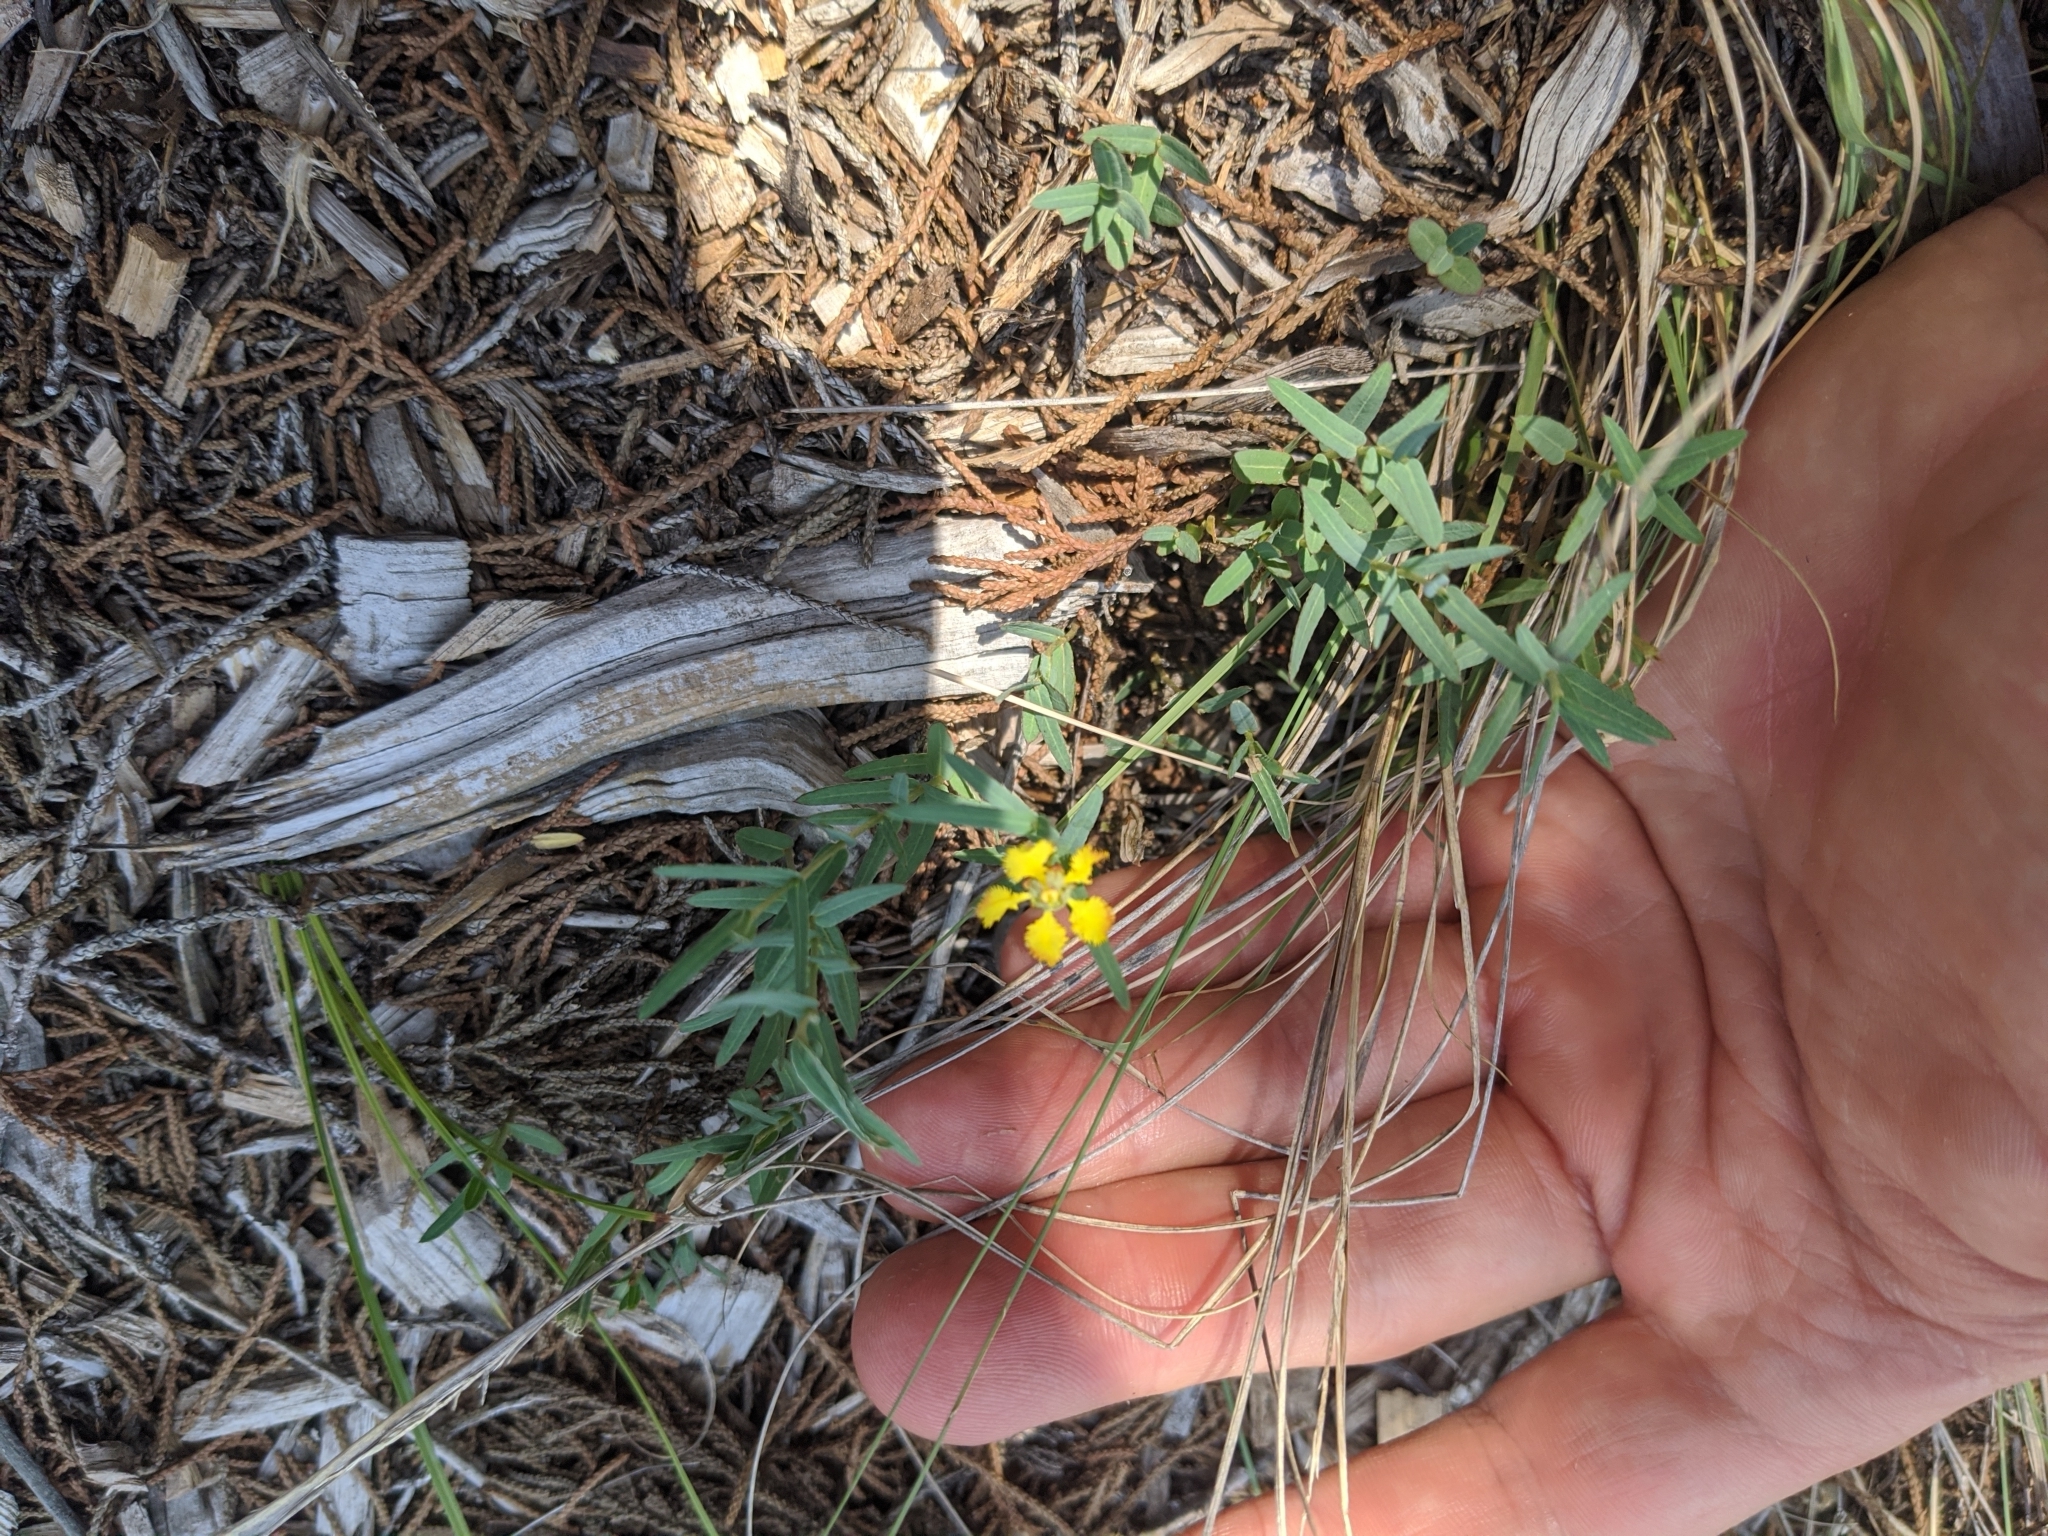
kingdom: Plantae
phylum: Tracheophyta
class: Magnoliopsida
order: Malpighiales
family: Malpighiaceae
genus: Aspicarpa
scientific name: Aspicarpa hyssopifolia
